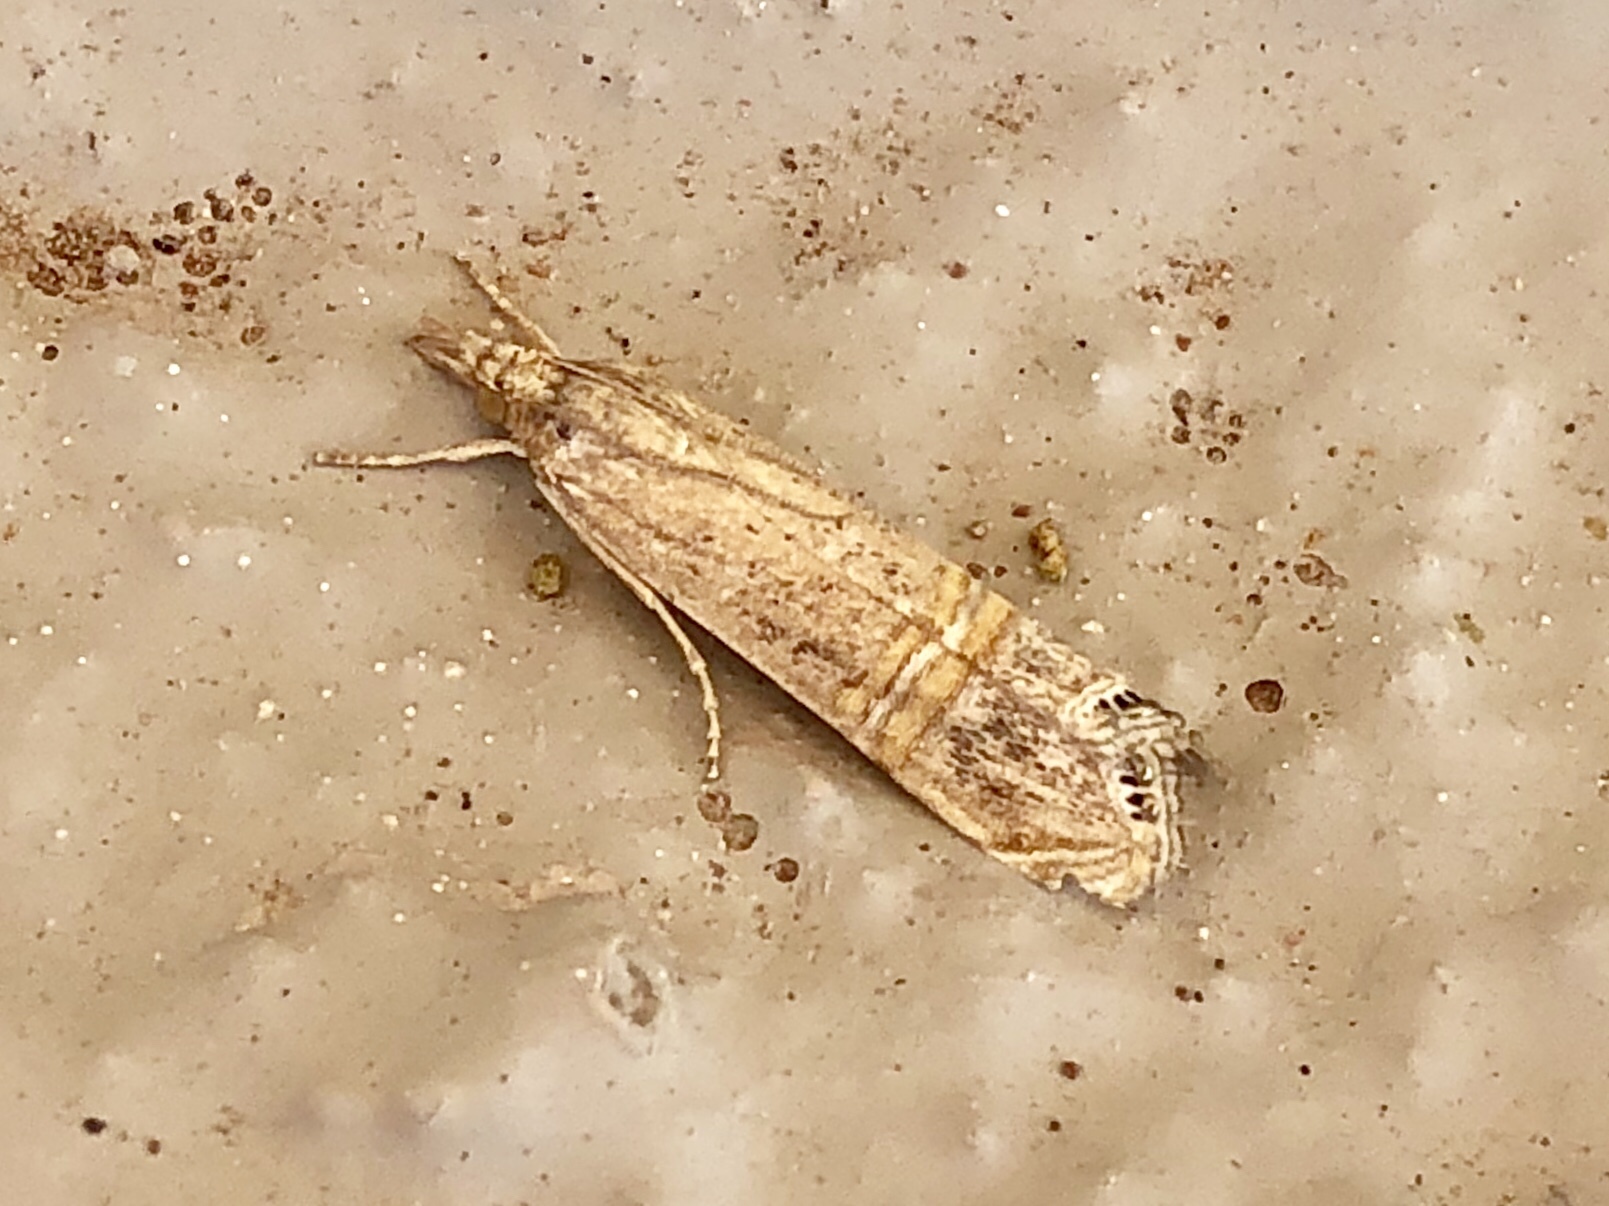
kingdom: Animalia
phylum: Arthropoda
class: Insecta
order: Lepidoptera
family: Crambidae
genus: Euchromius
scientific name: Euchromius ocellea
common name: Necklace veneer moth
